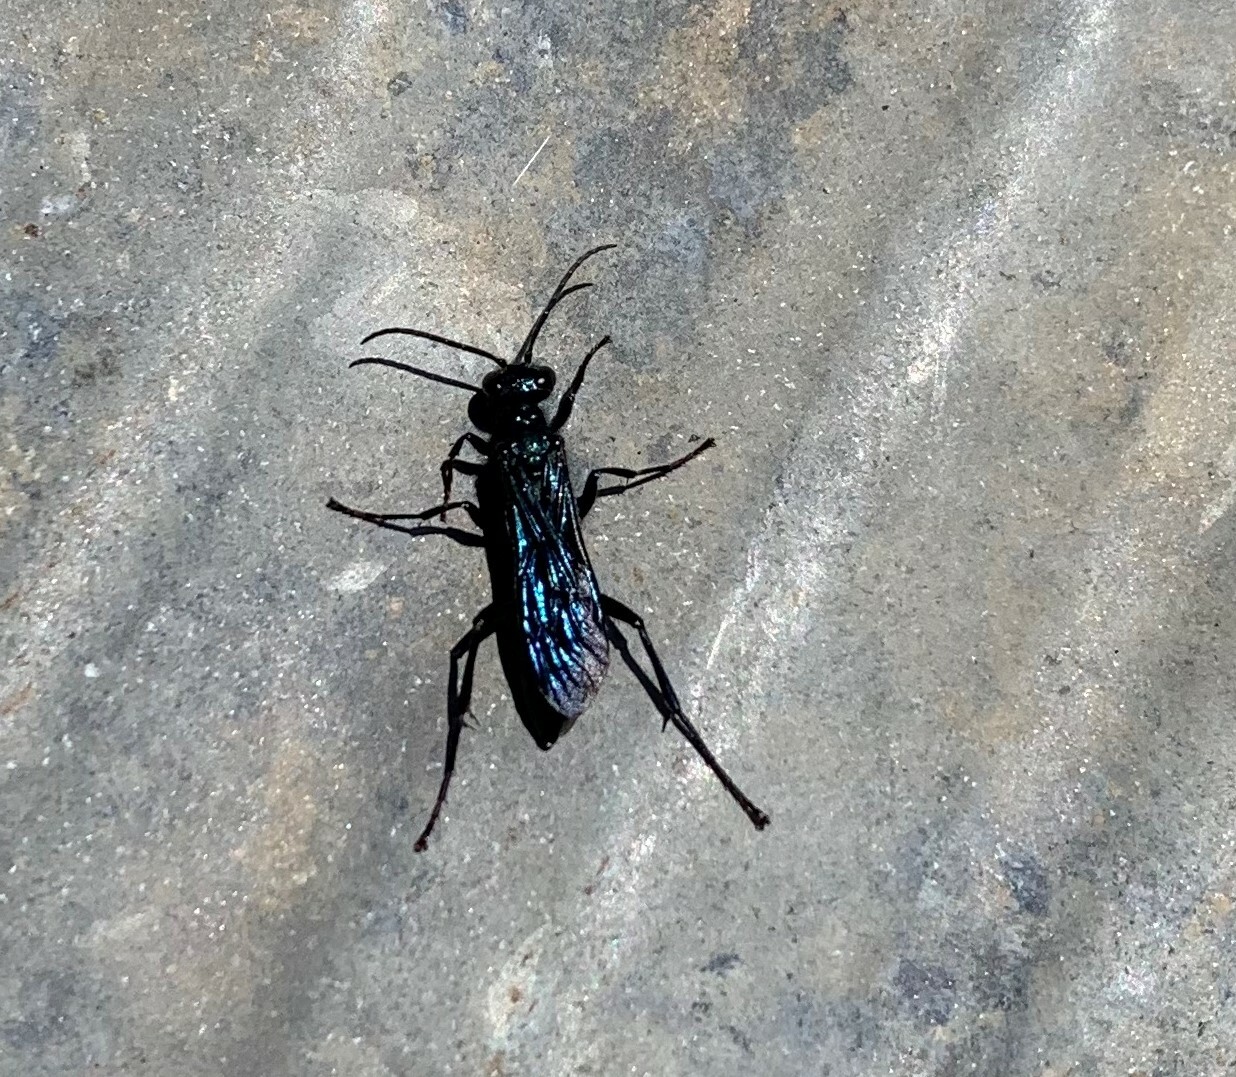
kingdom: Animalia
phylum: Arthropoda
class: Insecta
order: Hymenoptera
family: Sphecidae
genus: Chalybion
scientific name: Chalybion californicum
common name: Mud dauber
